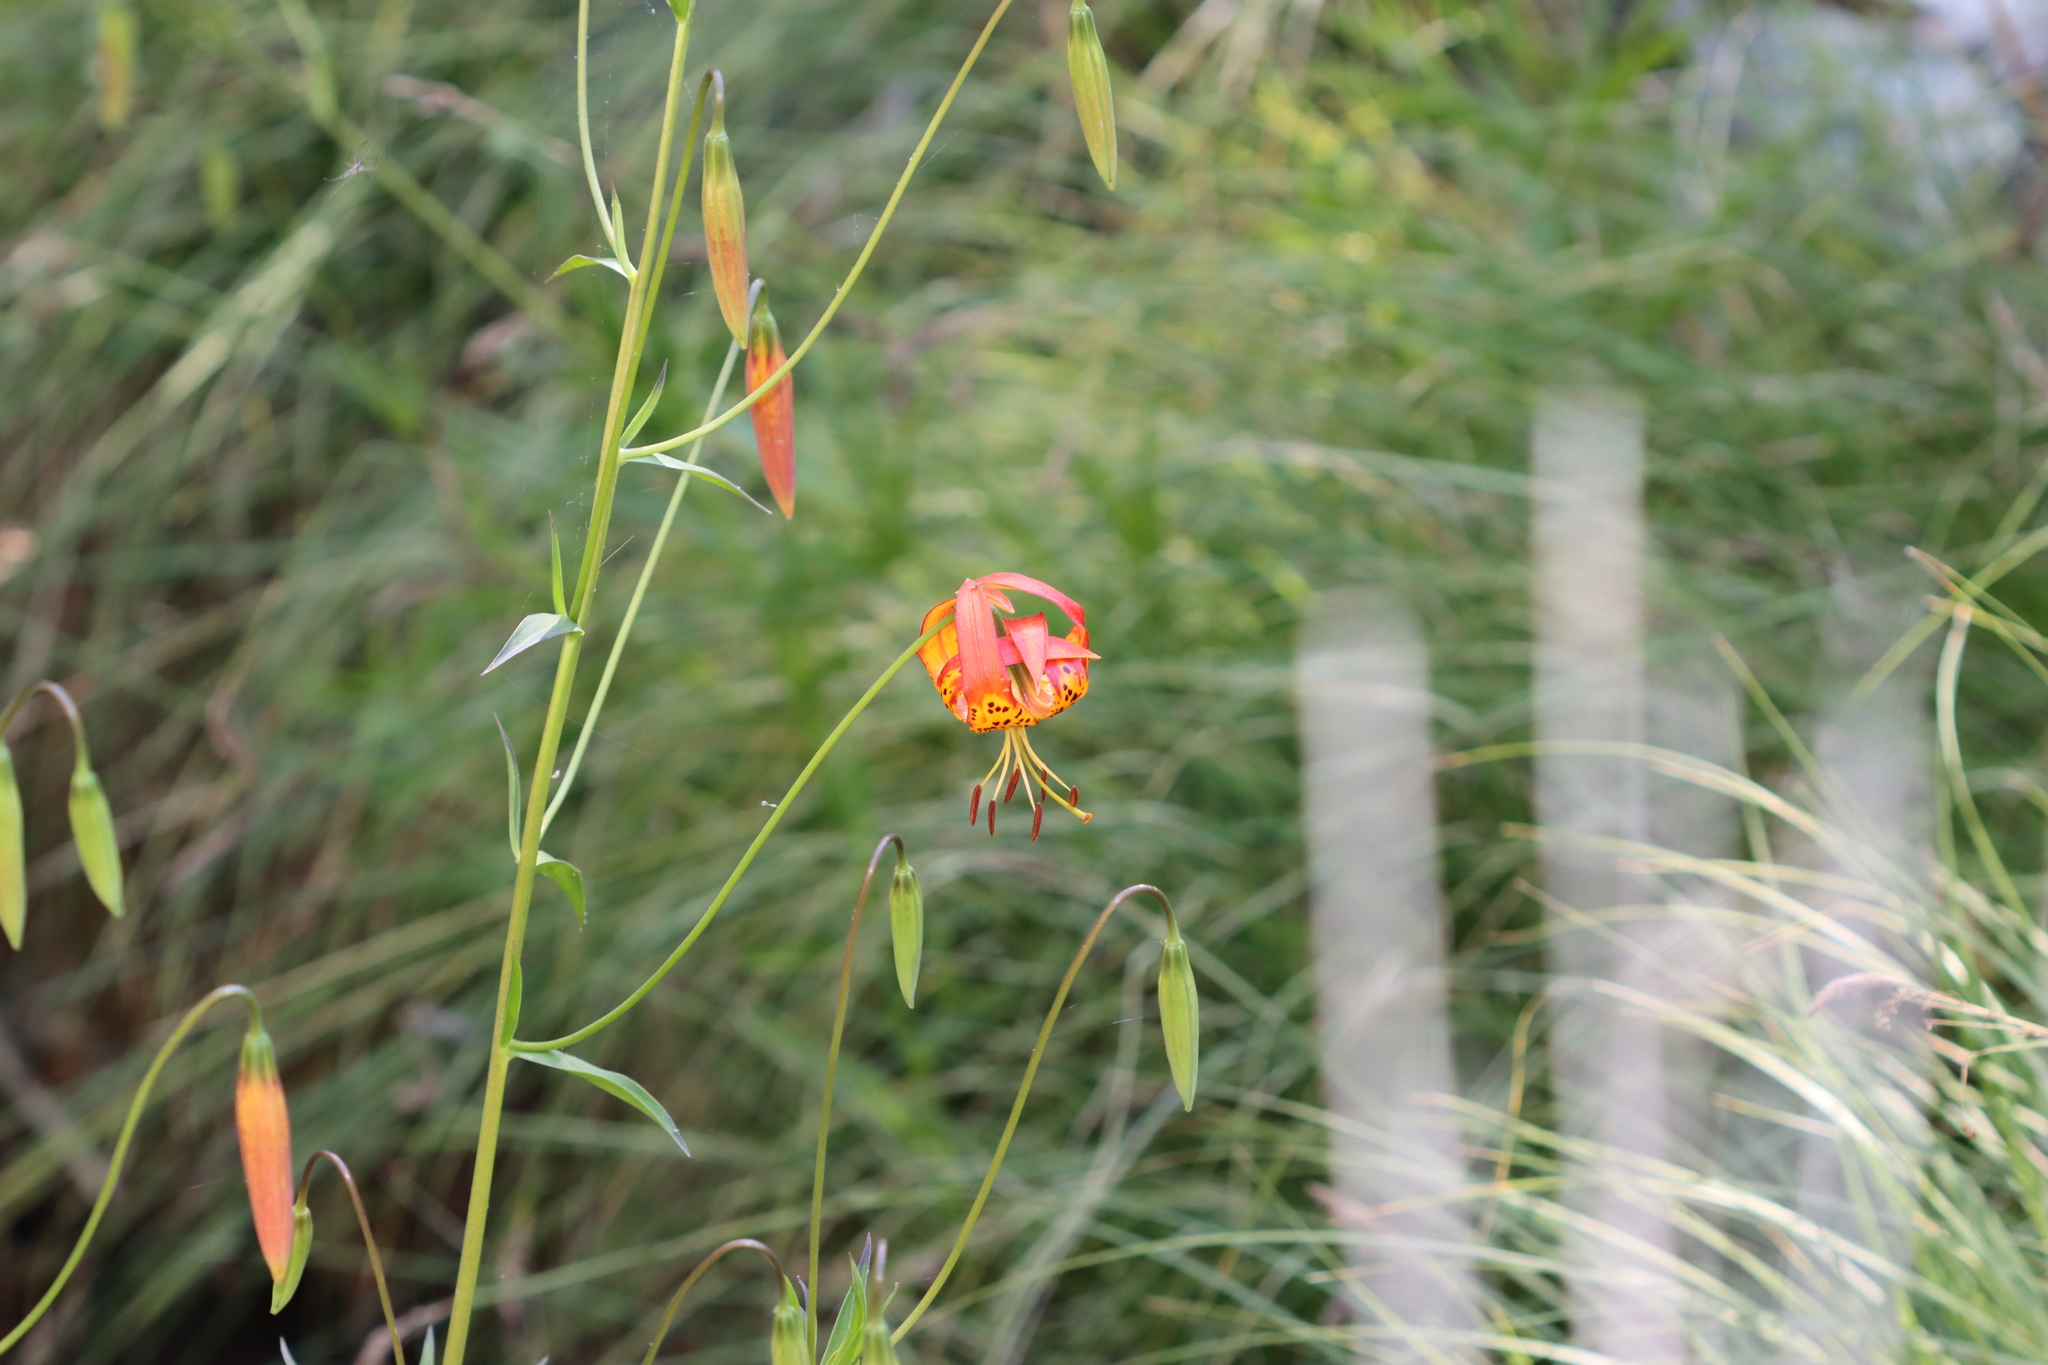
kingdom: Plantae
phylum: Tracheophyta
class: Liliopsida
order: Liliales
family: Liliaceae
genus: Lilium
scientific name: Lilium pardalinum
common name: Panther lily
